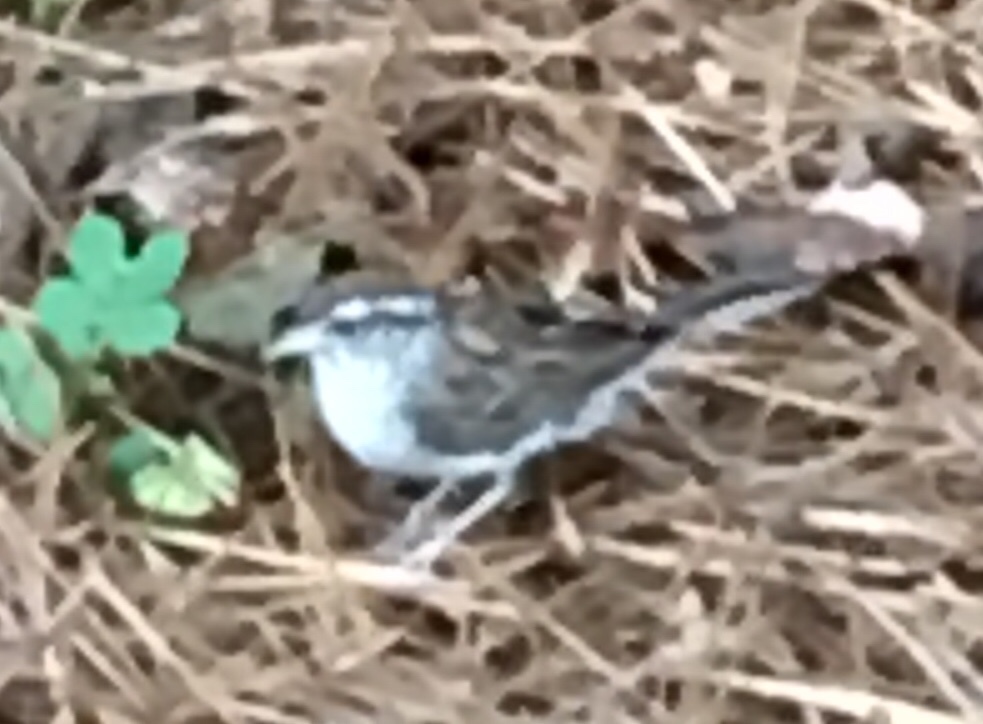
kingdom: Animalia
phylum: Chordata
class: Aves
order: Passeriformes
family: Passerellidae
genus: Spizella
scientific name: Spizella passerina
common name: Chipping sparrow
